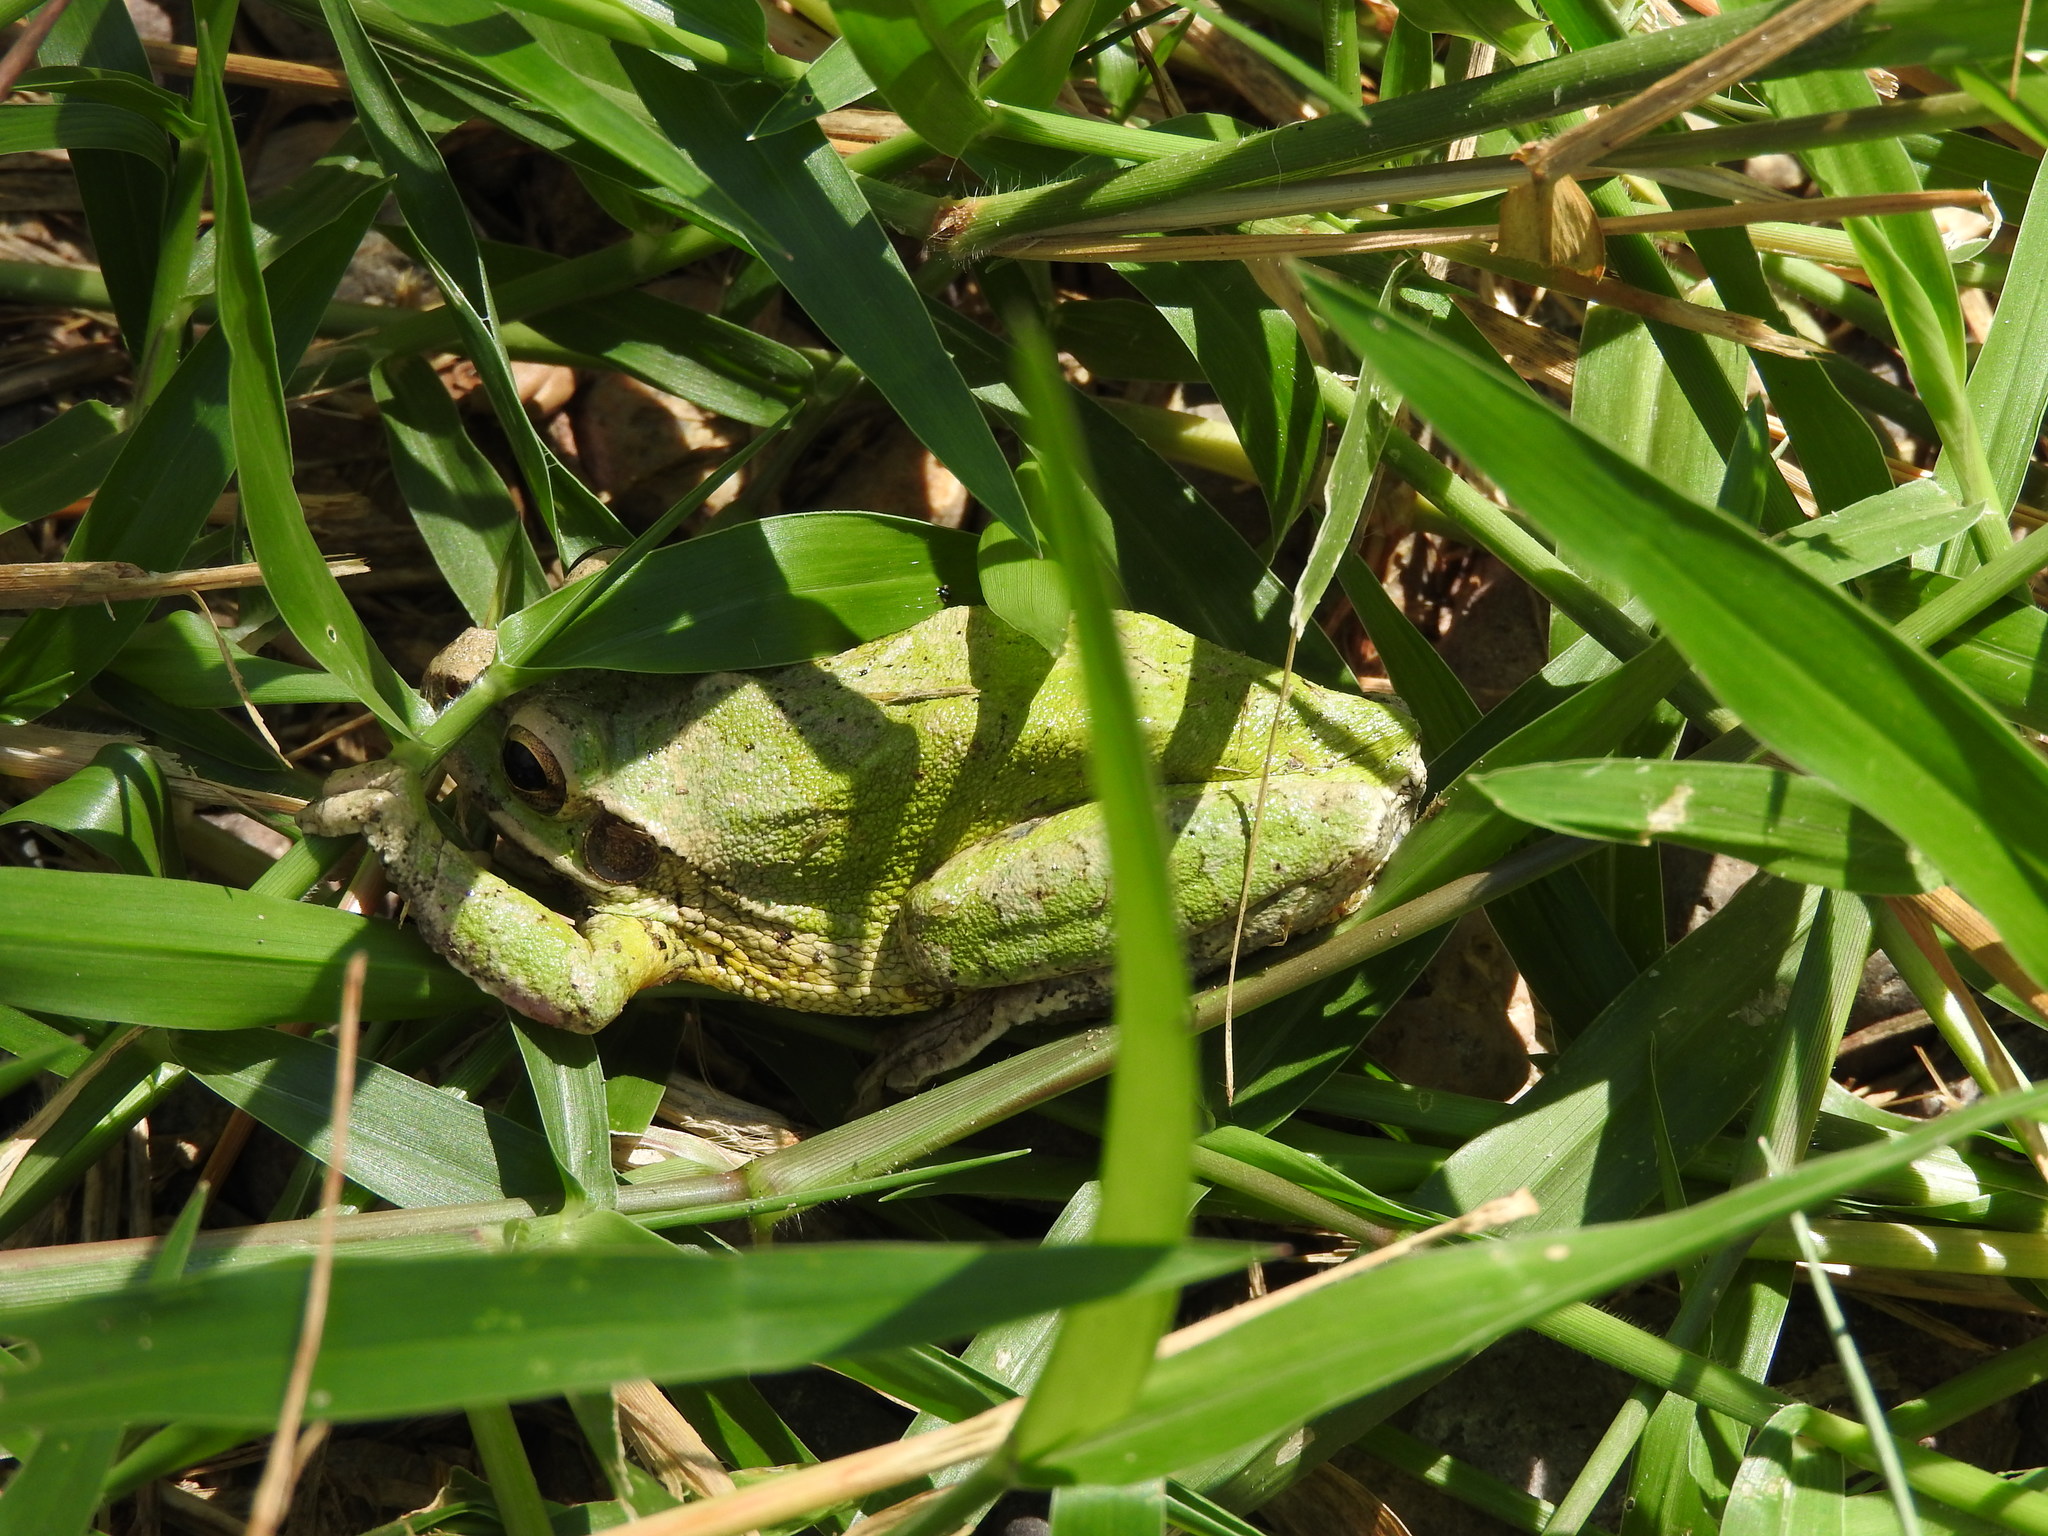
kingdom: Animalia
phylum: Chordata
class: Amphibia
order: Anura
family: Hylidae
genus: Smilisca
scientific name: Smilisca baudinii
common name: Mexican smilisca
